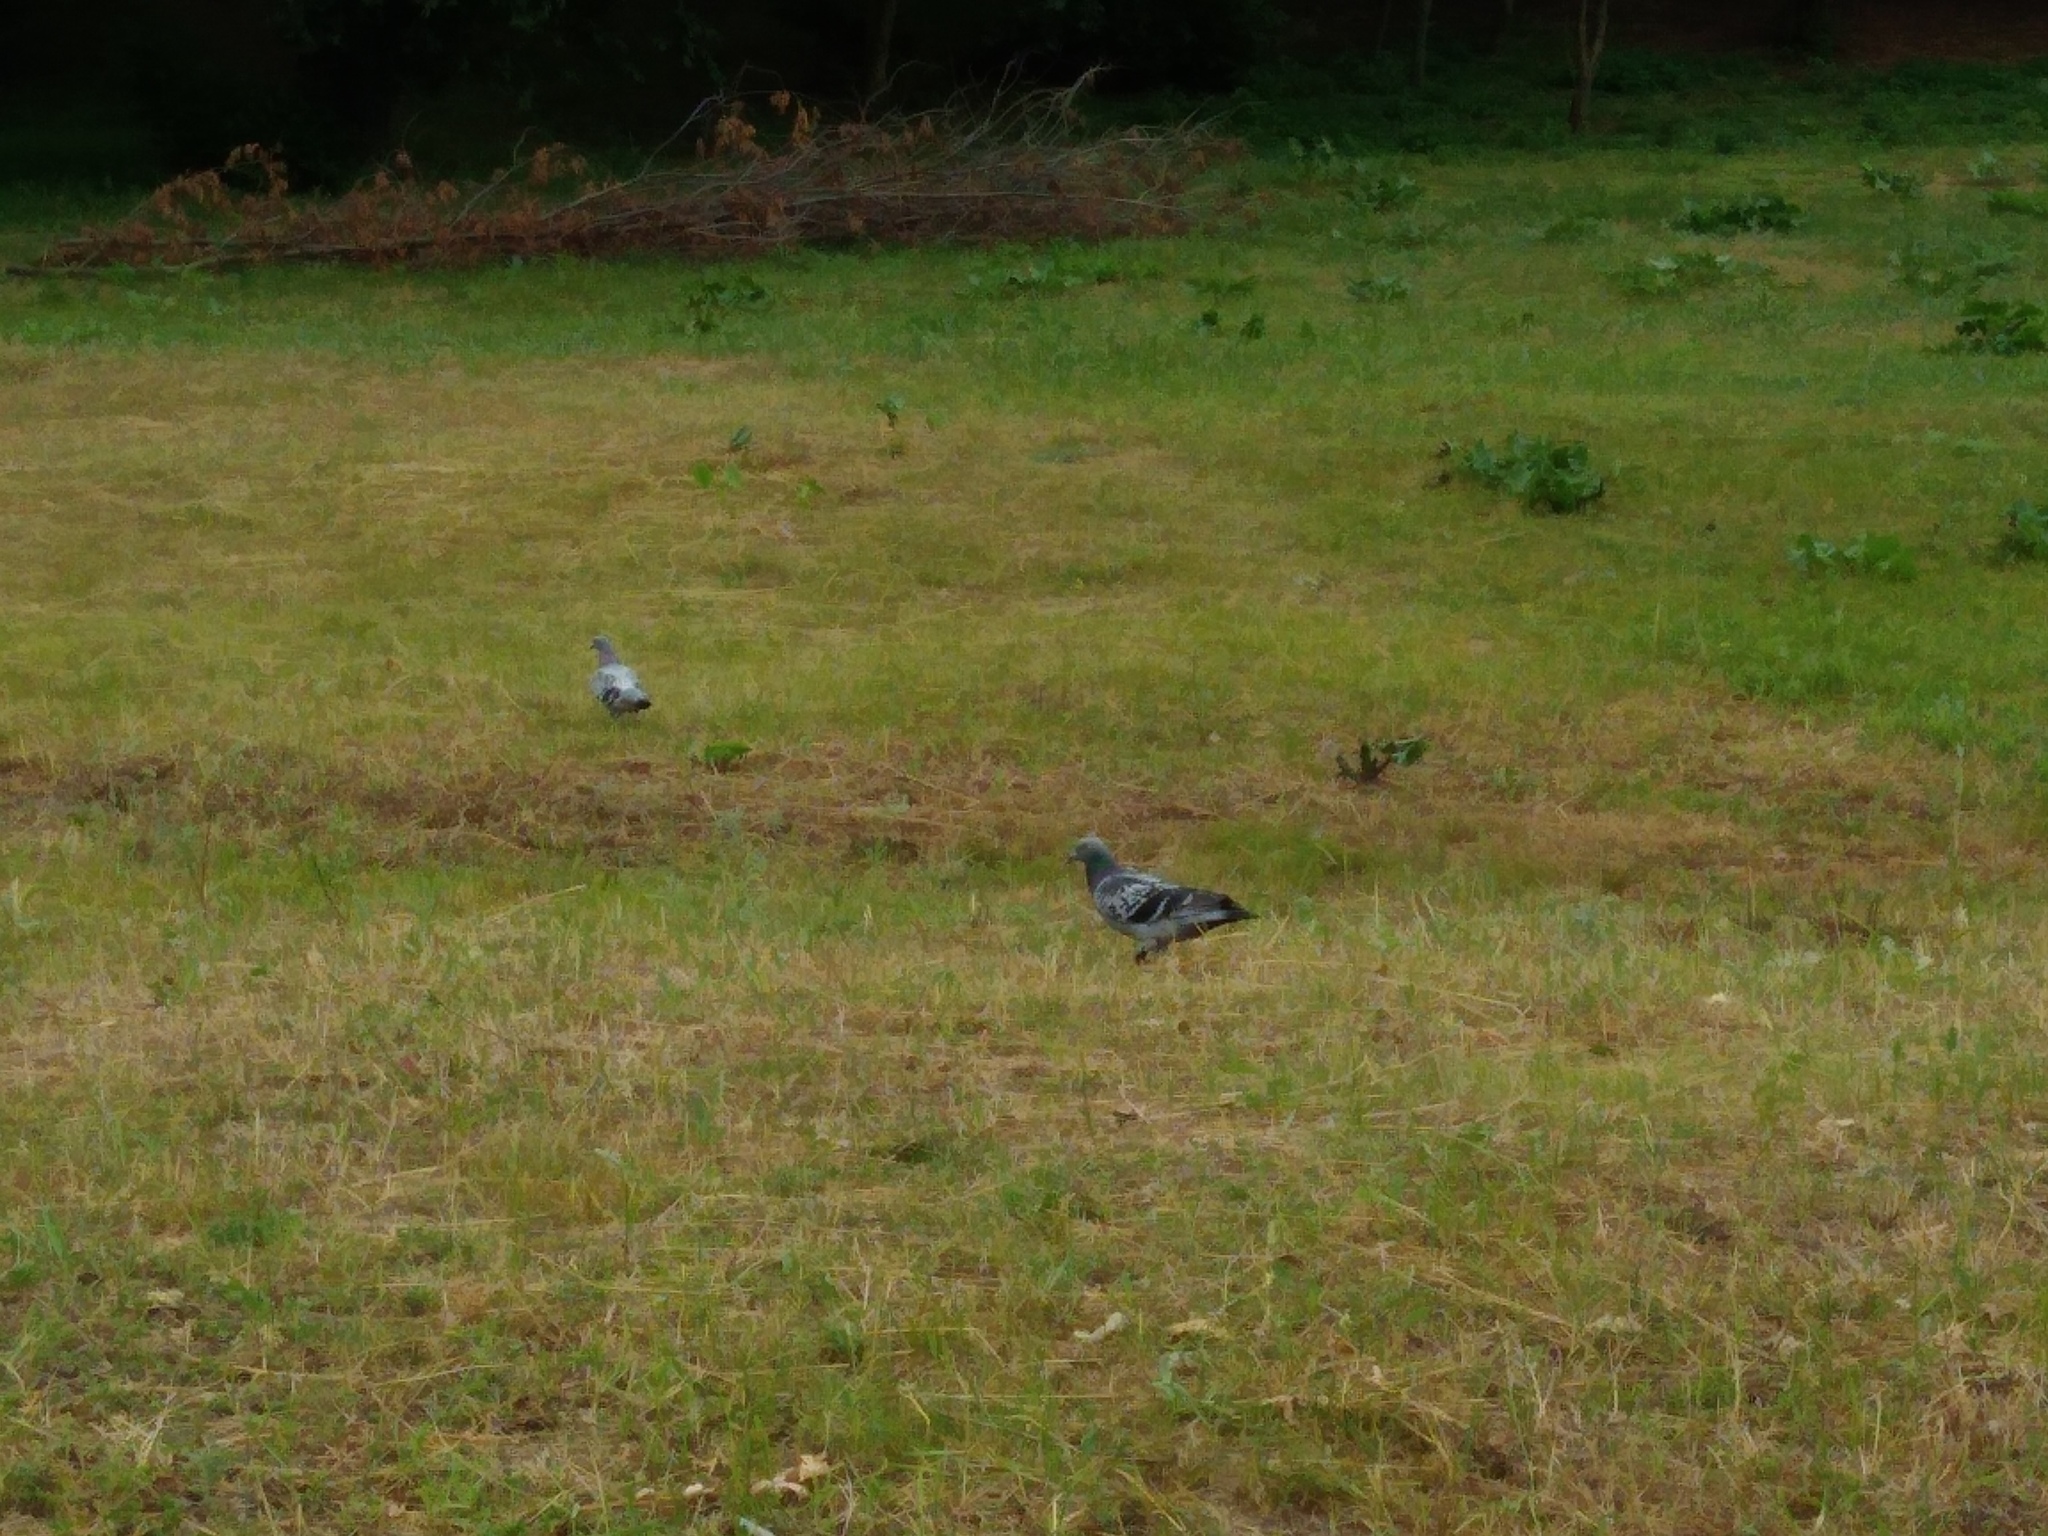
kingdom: Animalia
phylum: Chordata
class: Aves
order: Columbiformes
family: Columbidae
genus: Columba
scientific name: Columba livia
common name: Rock pigeon
